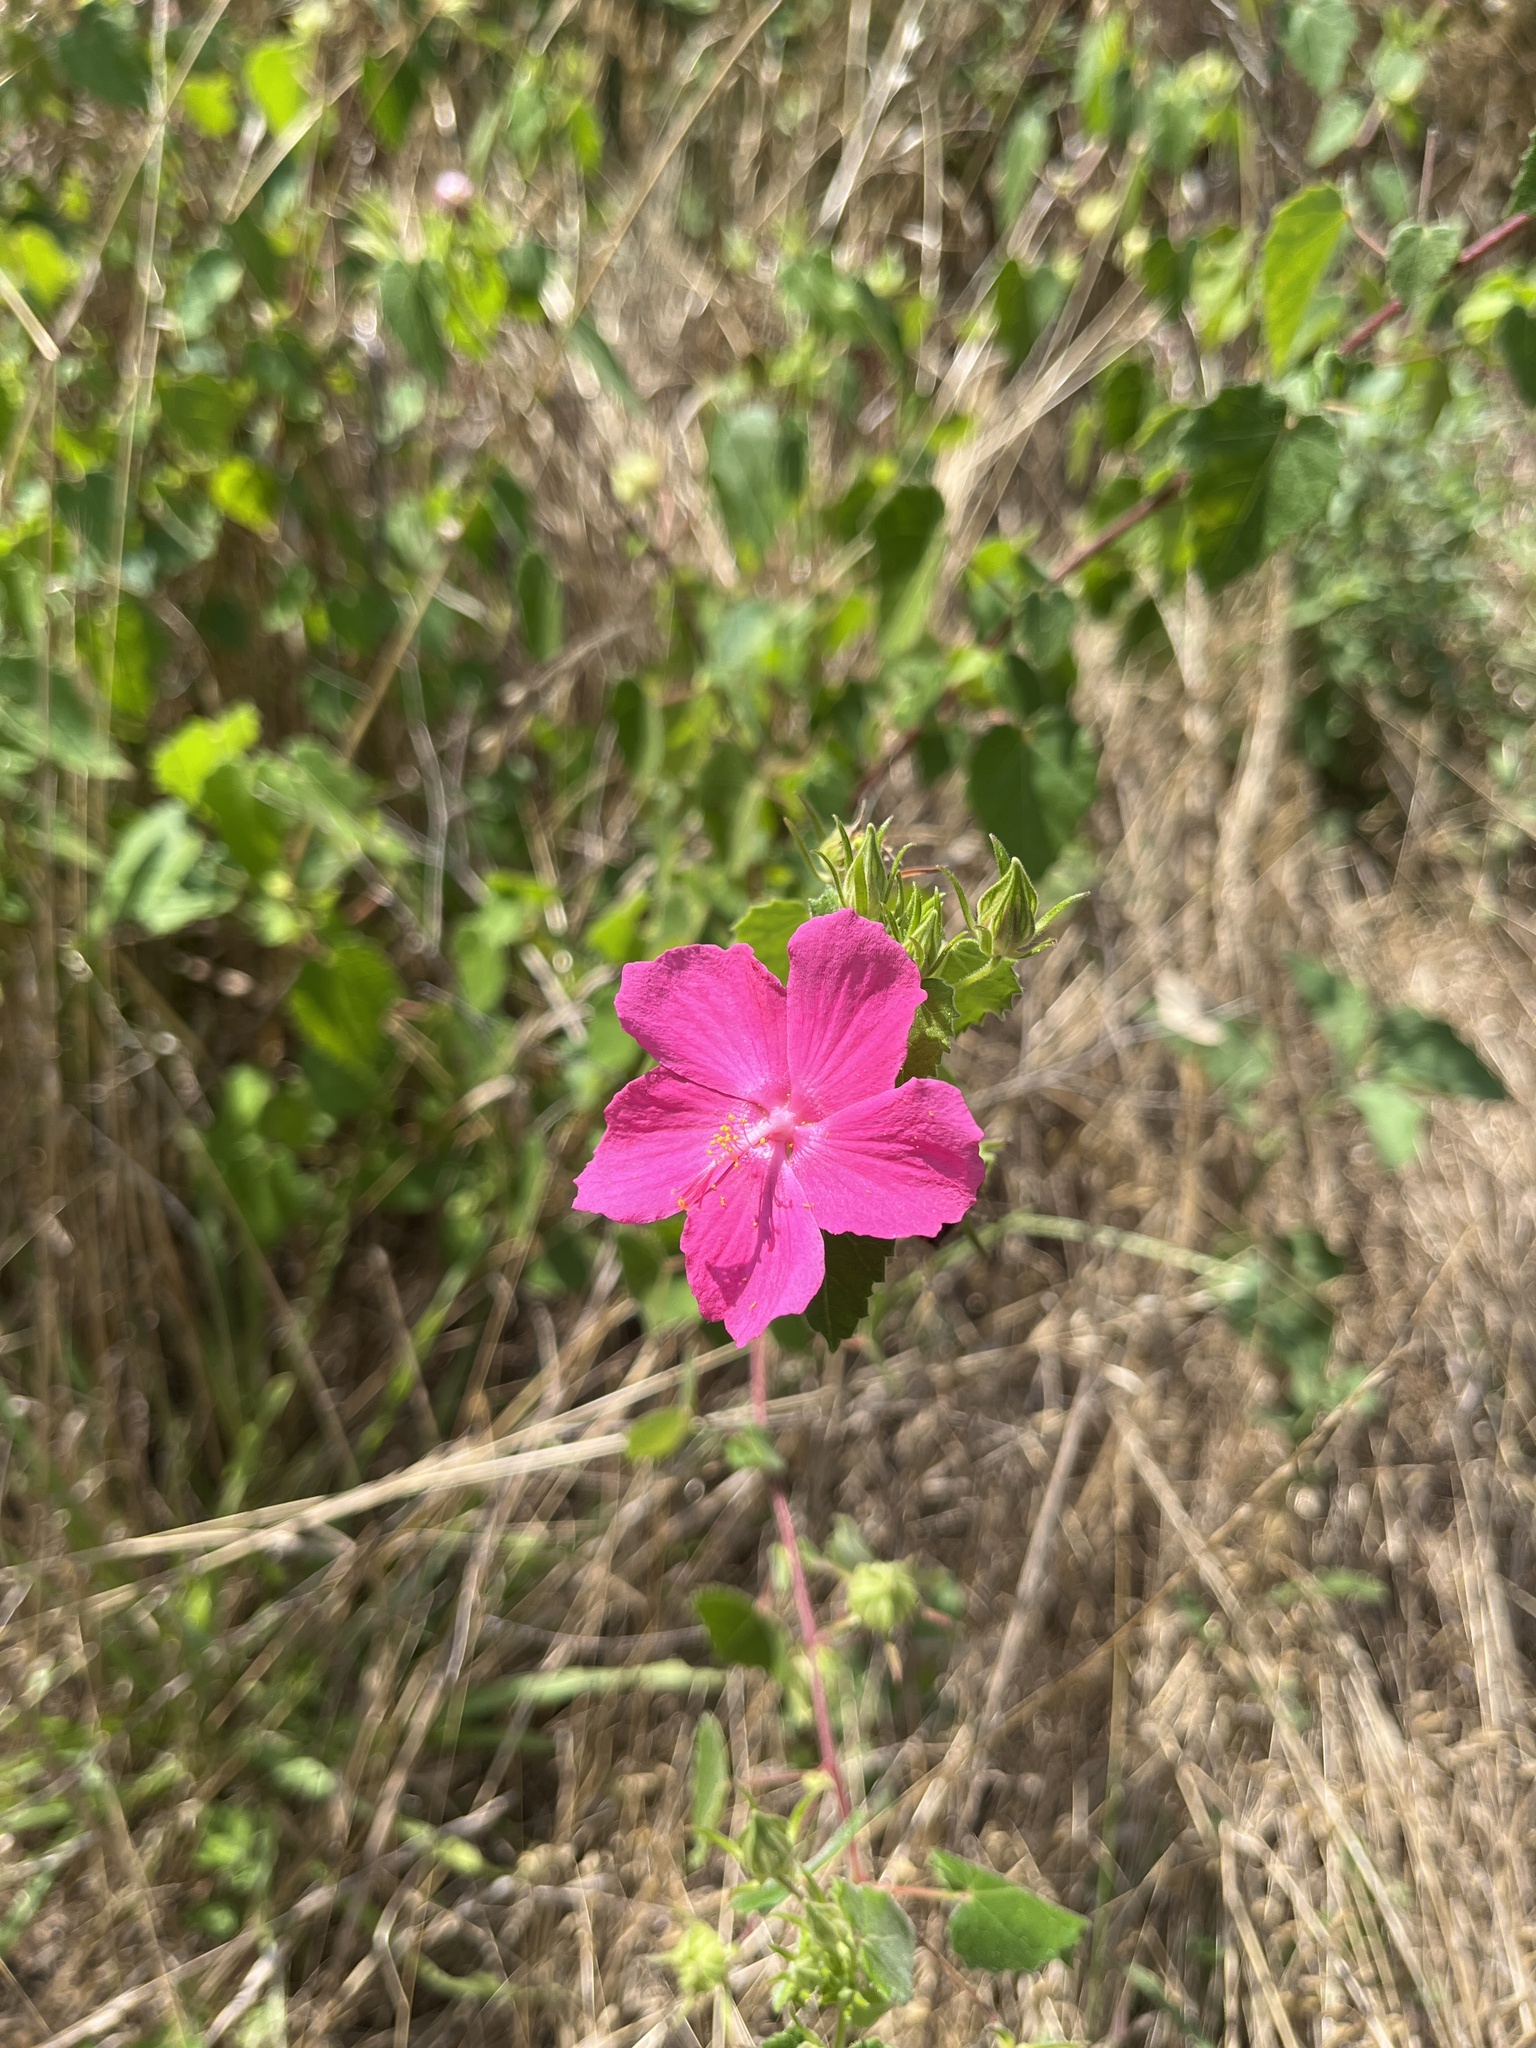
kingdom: Plantae
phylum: Tracheophyta
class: Magnoliopsida
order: Malvales
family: Malvaceae
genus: Pavonia
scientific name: Pavonia lasiopetala
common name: Texas swamp-mallow
